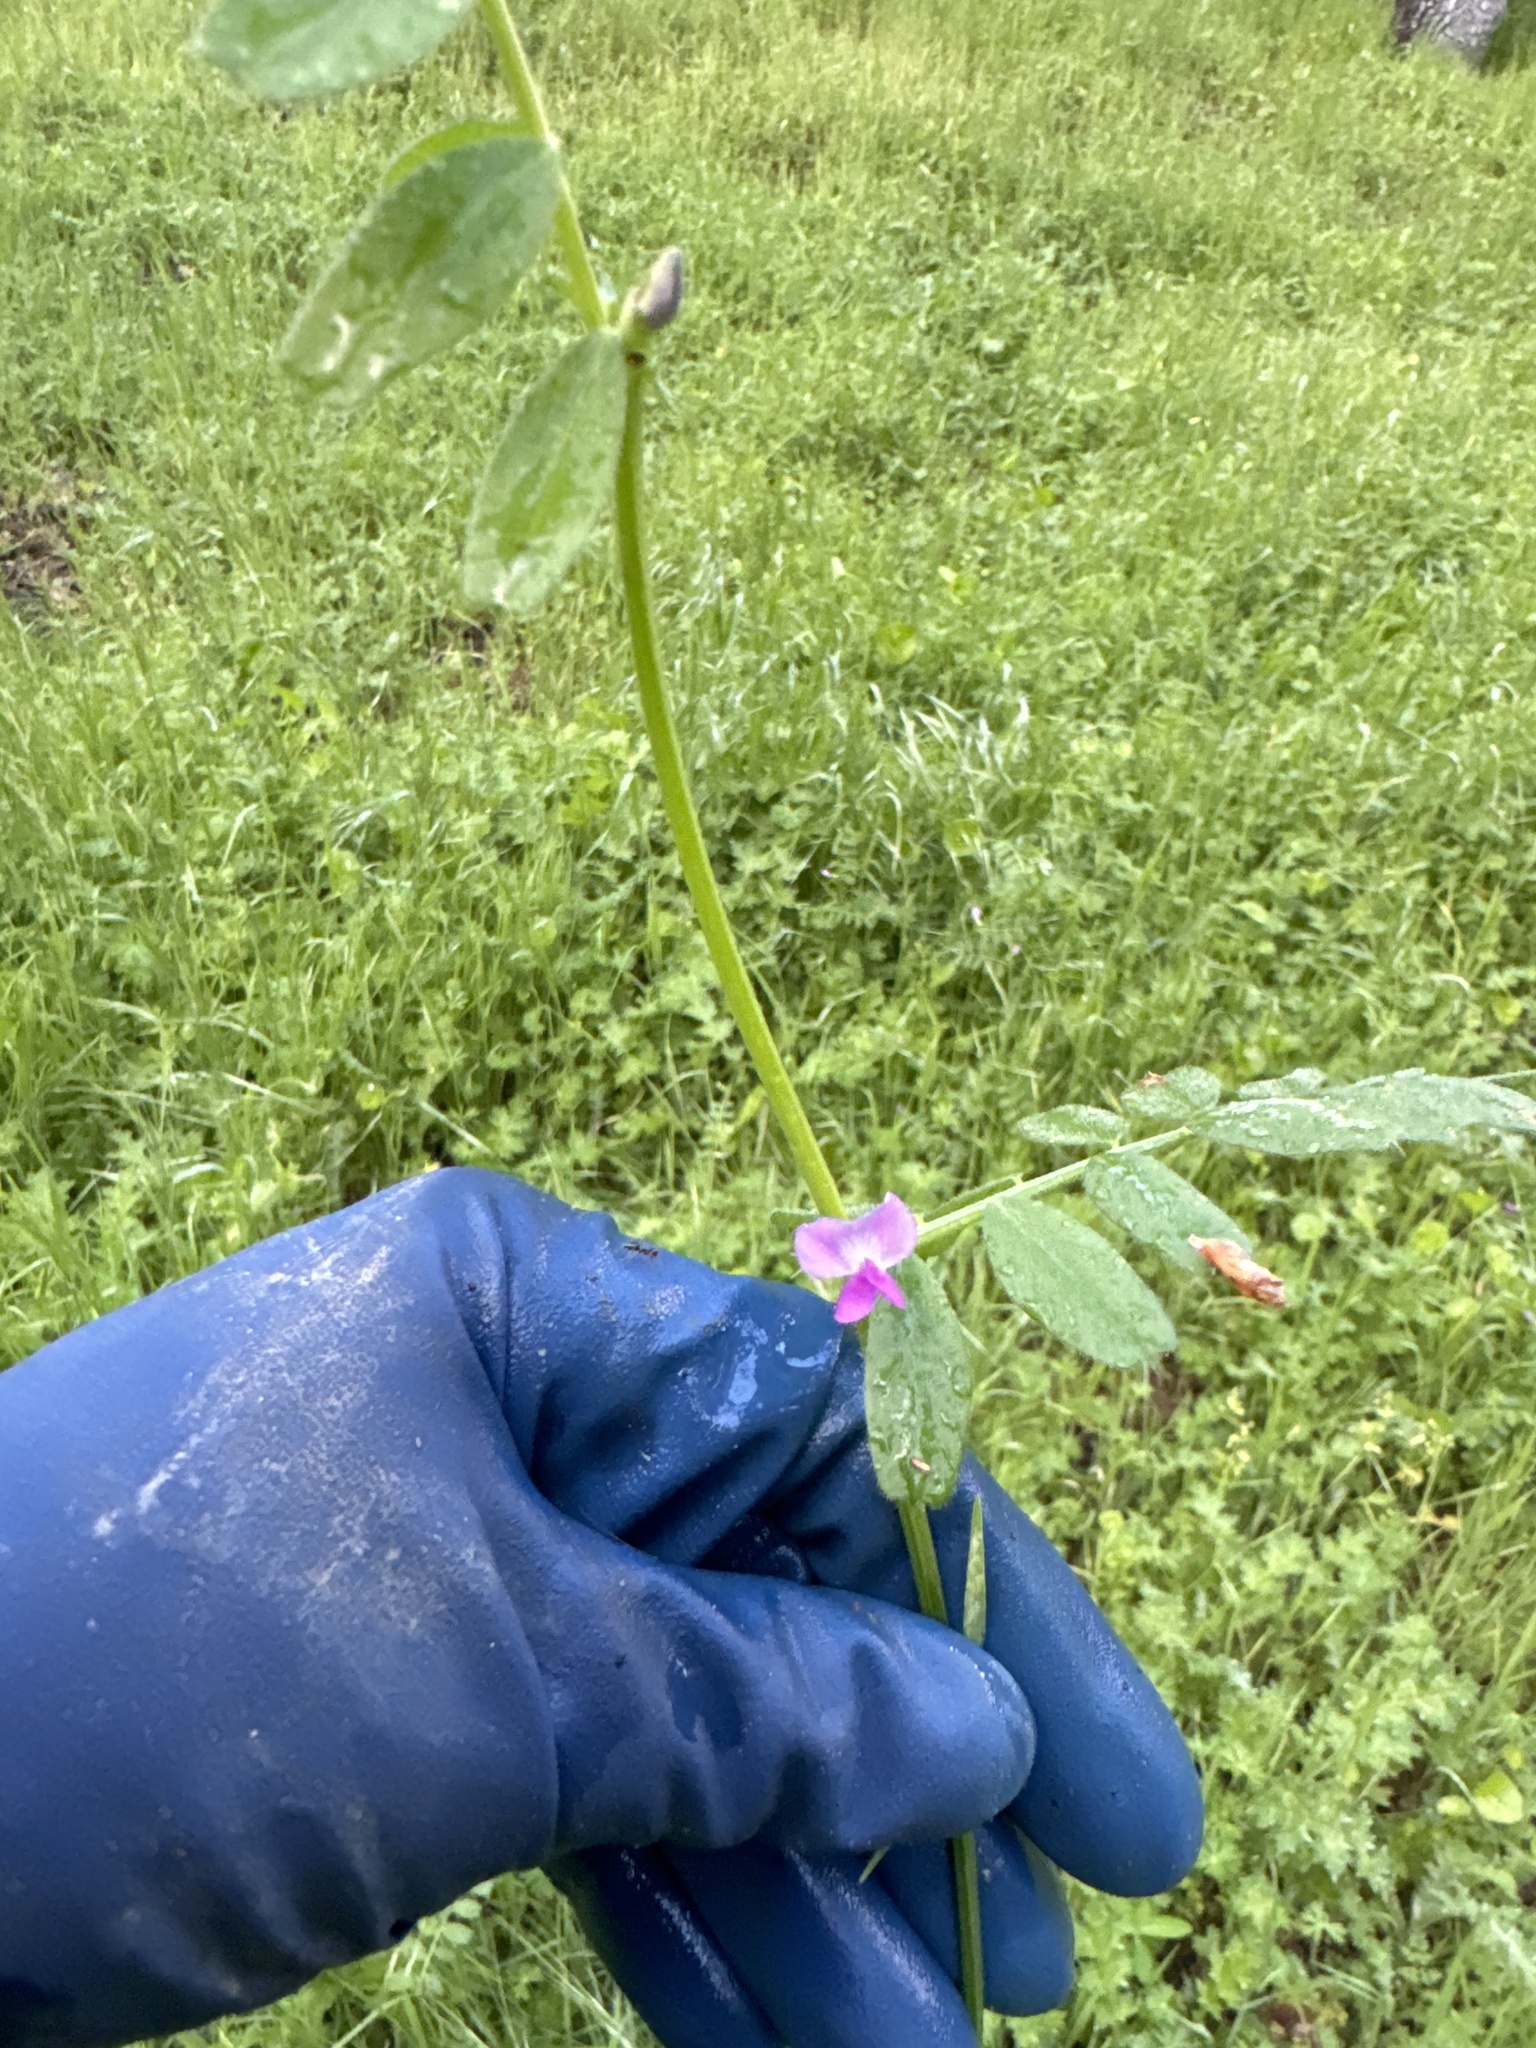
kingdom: Plantae
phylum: Tracheophyta
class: Magnoliopsida
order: Fabales
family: Fabaceae
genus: Vicia
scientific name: Vicia sativa
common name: Garden vetch
